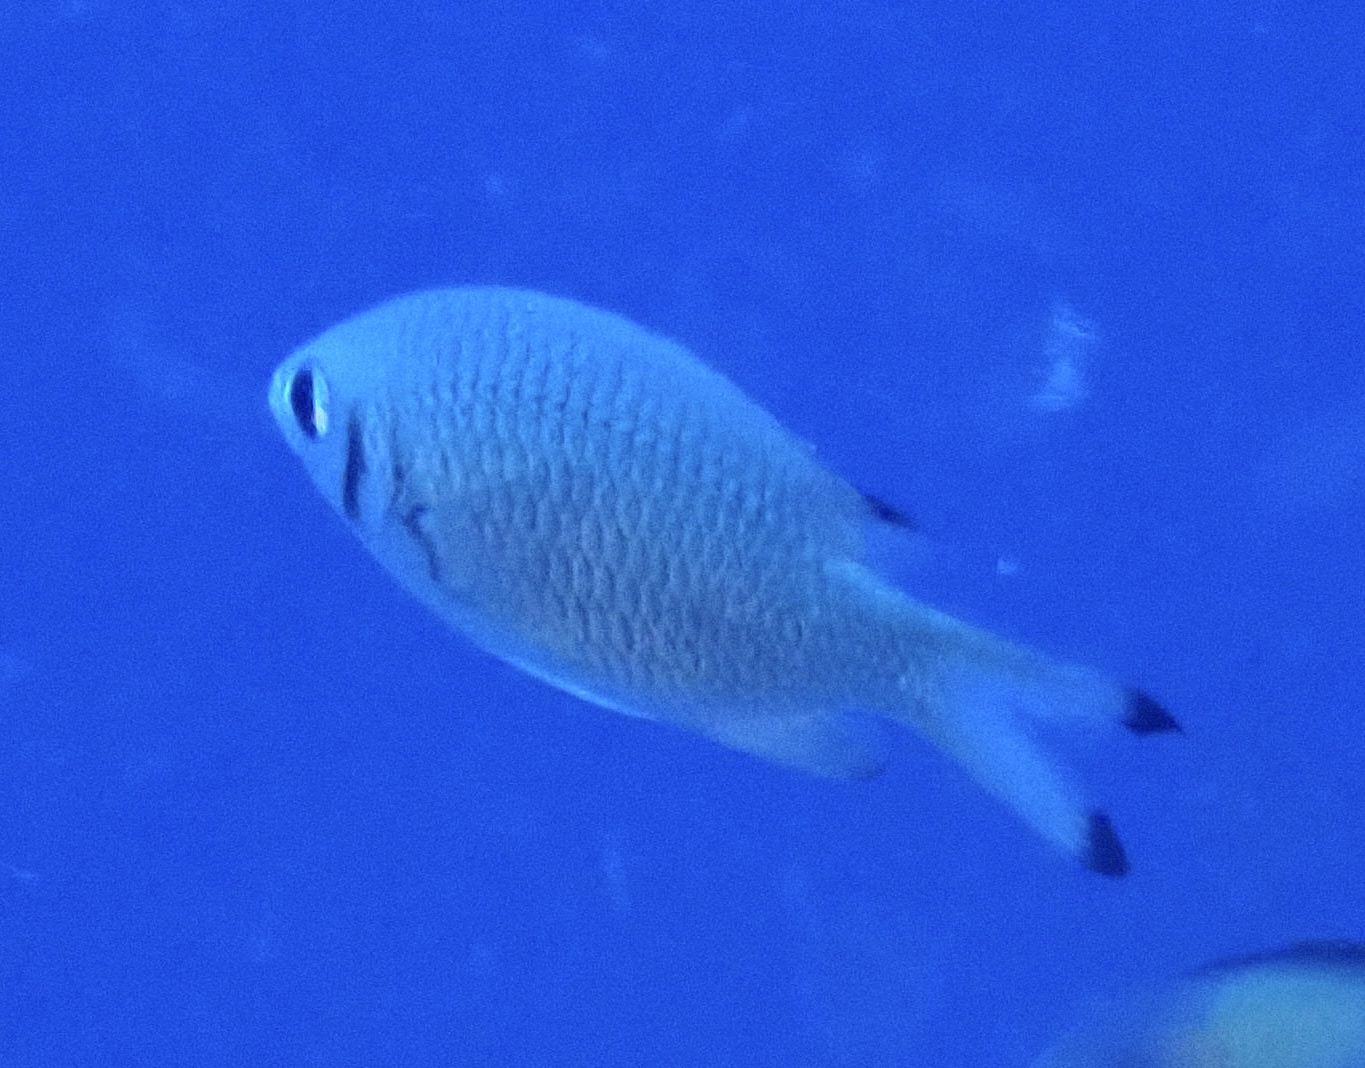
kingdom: Animalia
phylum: Chordata
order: Perciformes
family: Pomacentridae
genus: Chromis
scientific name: Chromis weberi
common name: Weber's chromis
